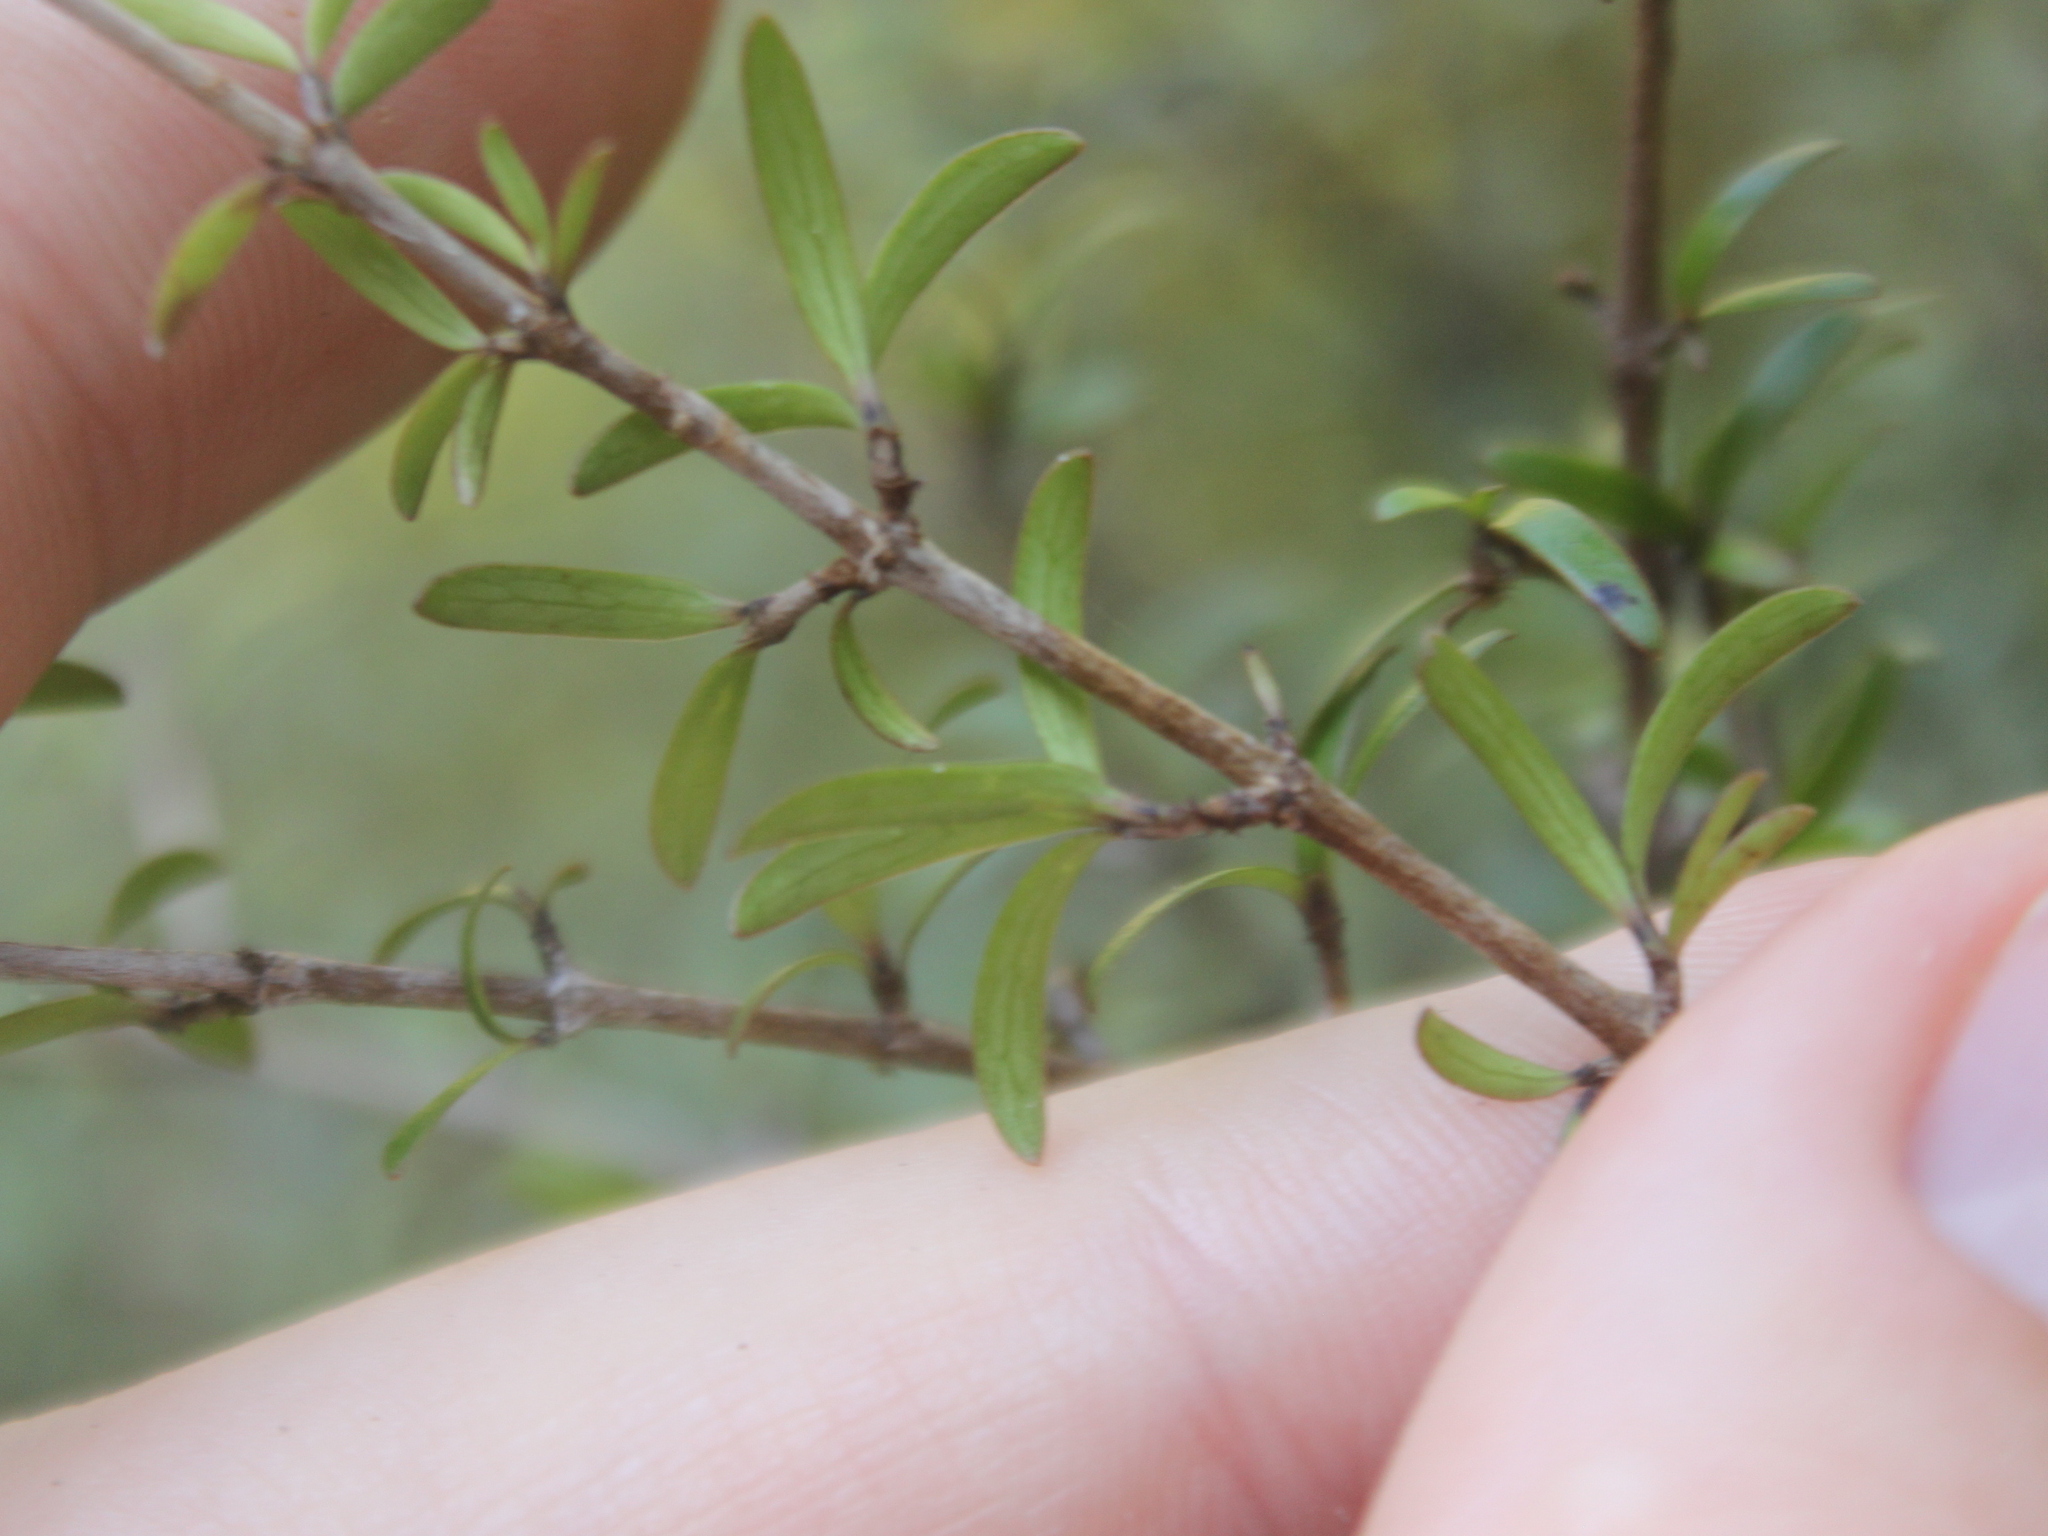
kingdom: Plantae
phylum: Tracheophyta
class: Magnoliopsida
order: Gentianales
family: Rubiaceae
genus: Coprosma
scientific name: Coprosma propinqua
